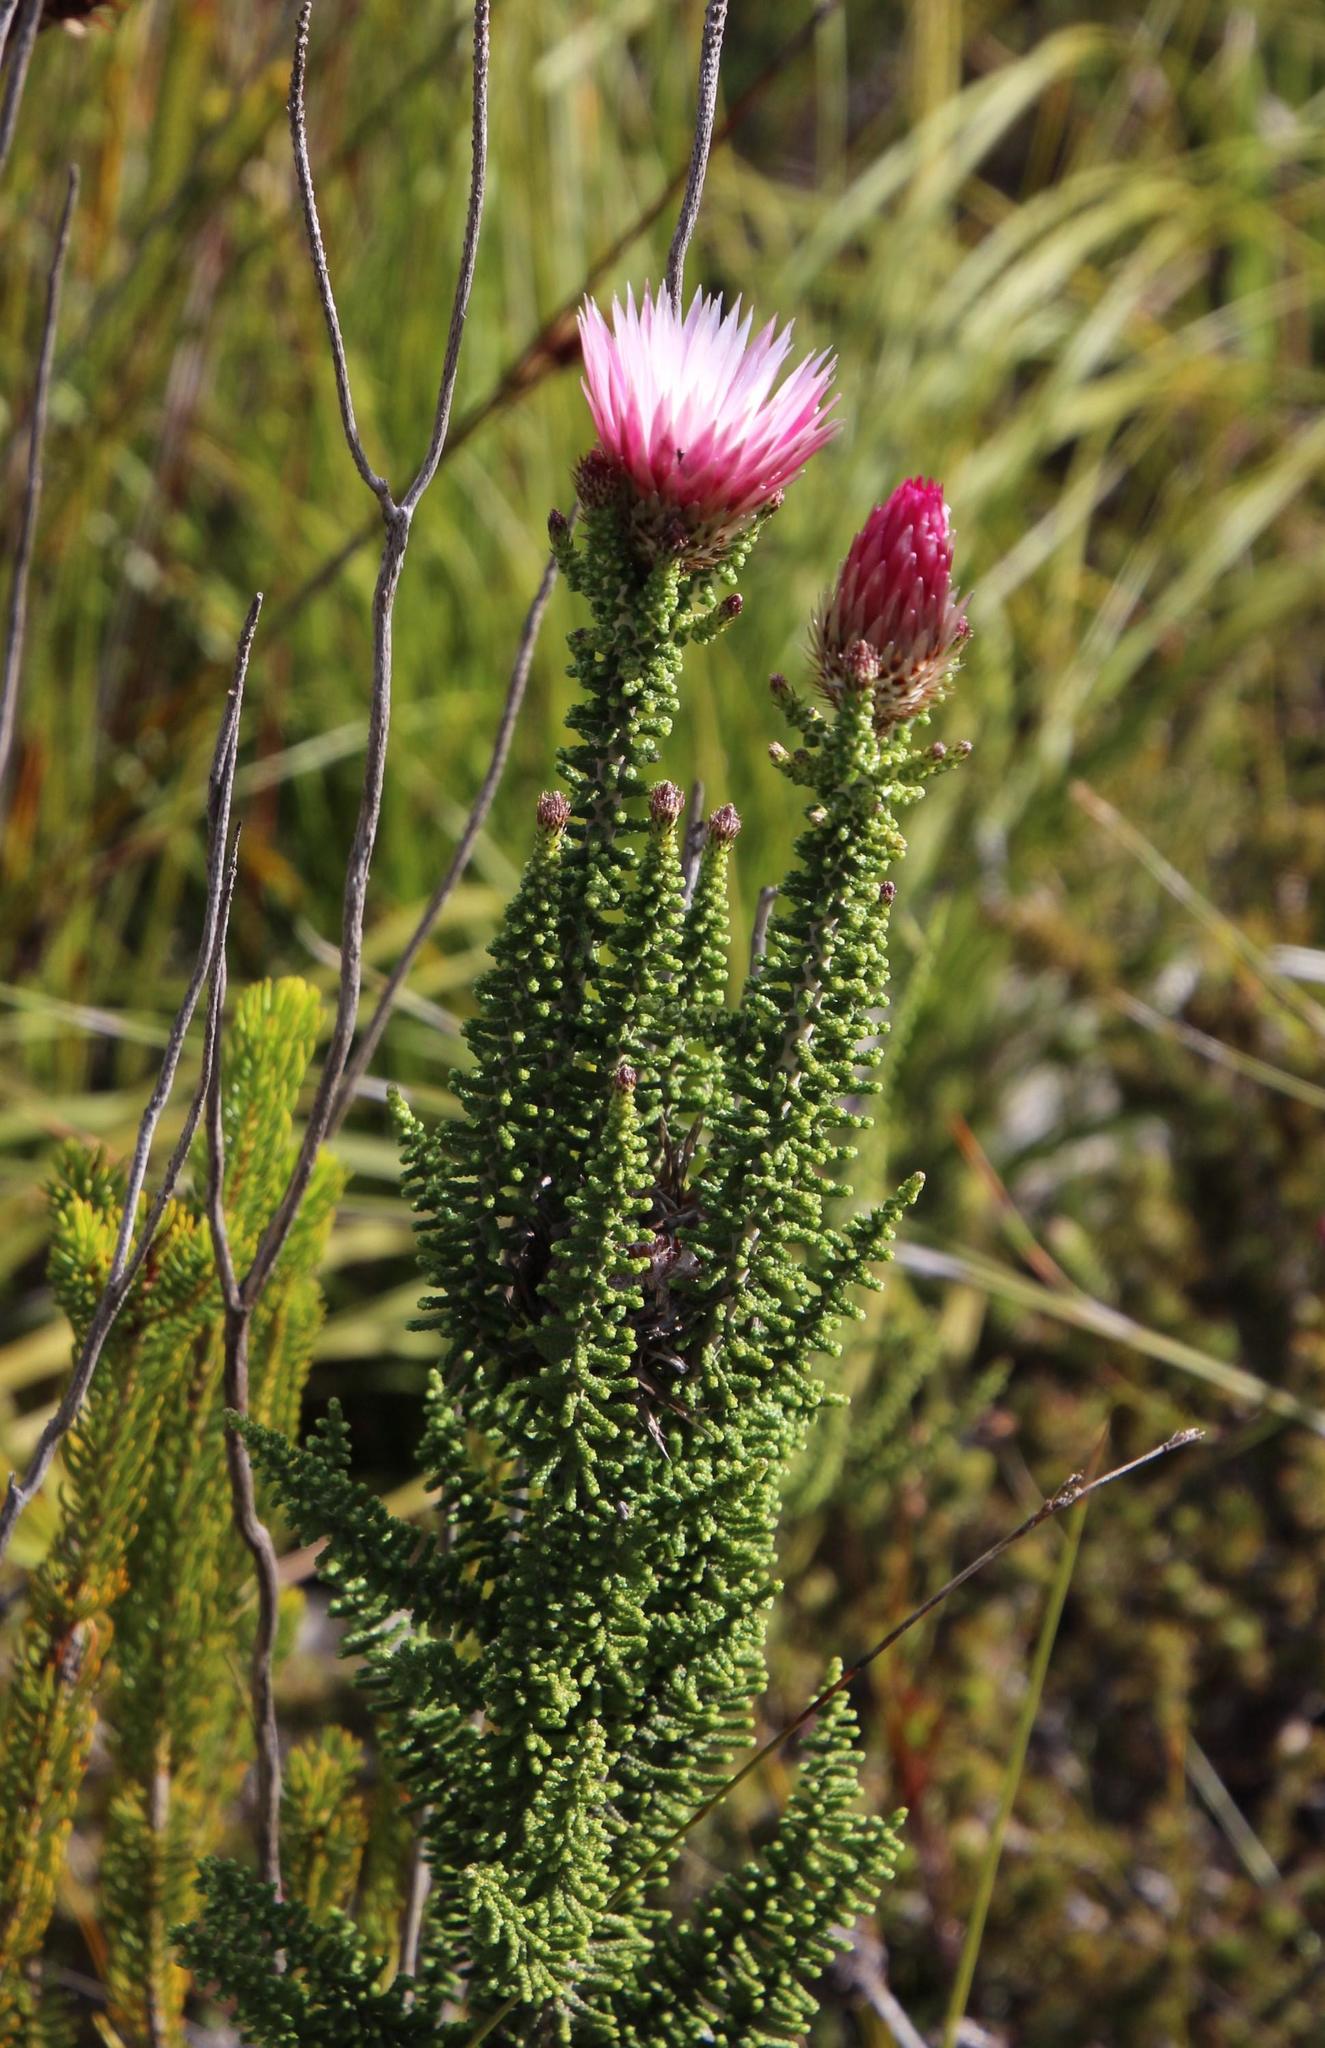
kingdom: Plantae
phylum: Tracheophyta
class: Magnoliopsida
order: Asterales
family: Asteraceae
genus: Phaenocoma
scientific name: Phaenocoma prolifera
